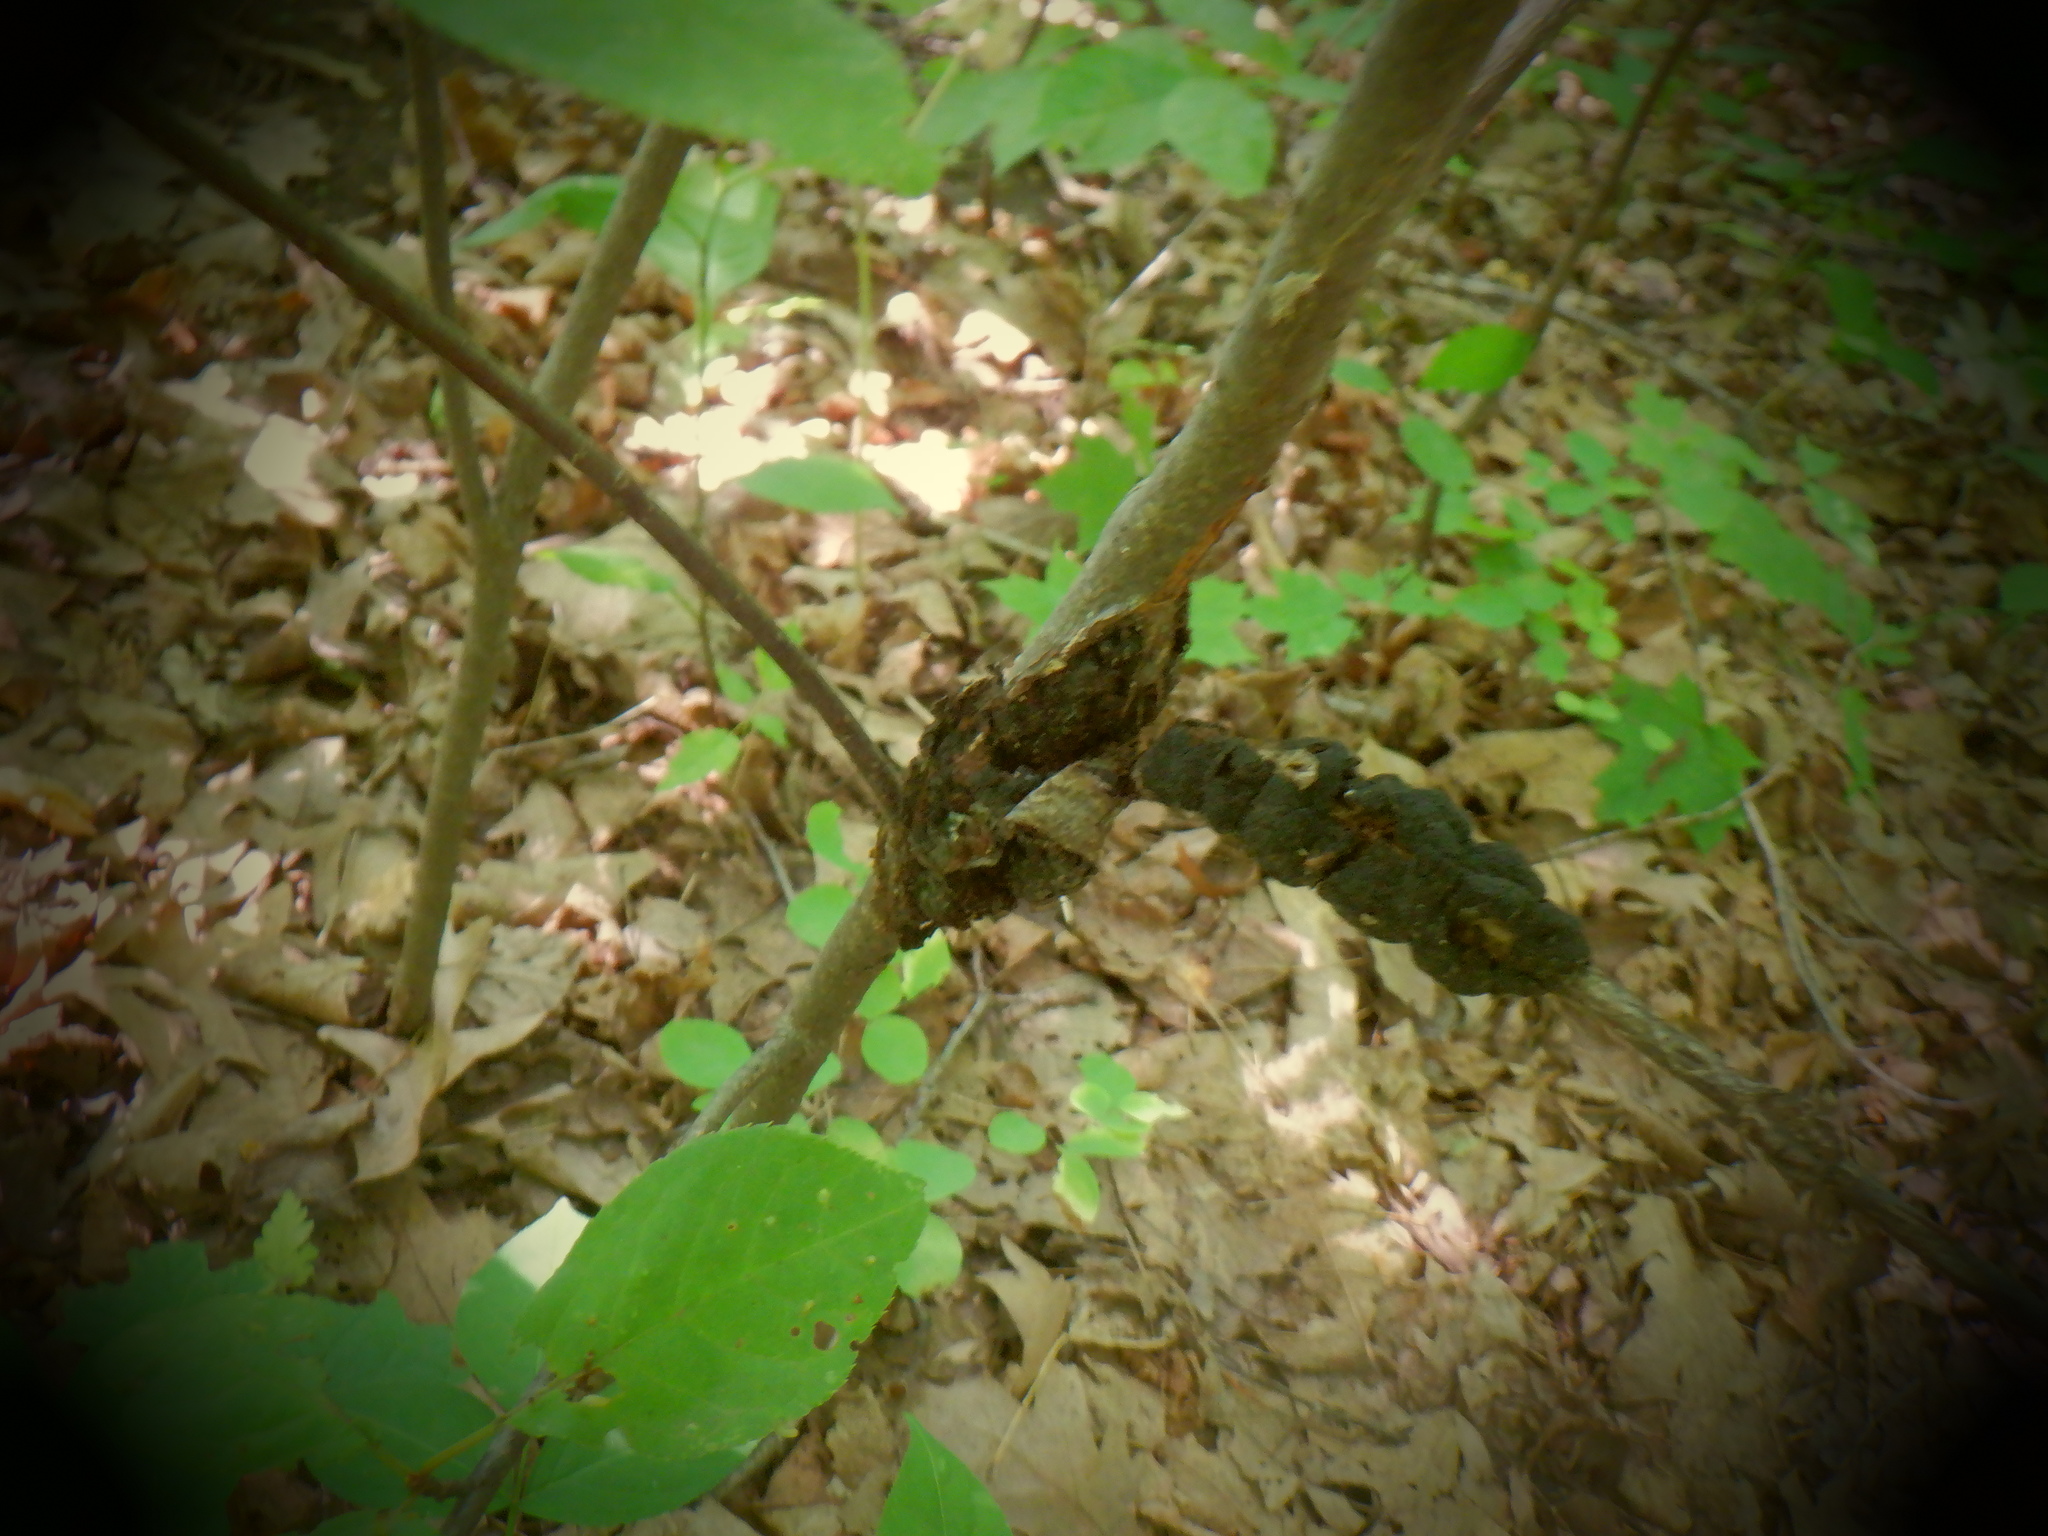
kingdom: Fungi
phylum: Ascomycota
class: Dothideomycetes
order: Venturiales
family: Venturiaceae
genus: Apiosporina
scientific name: Apiosporina morbosa
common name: Black knot
